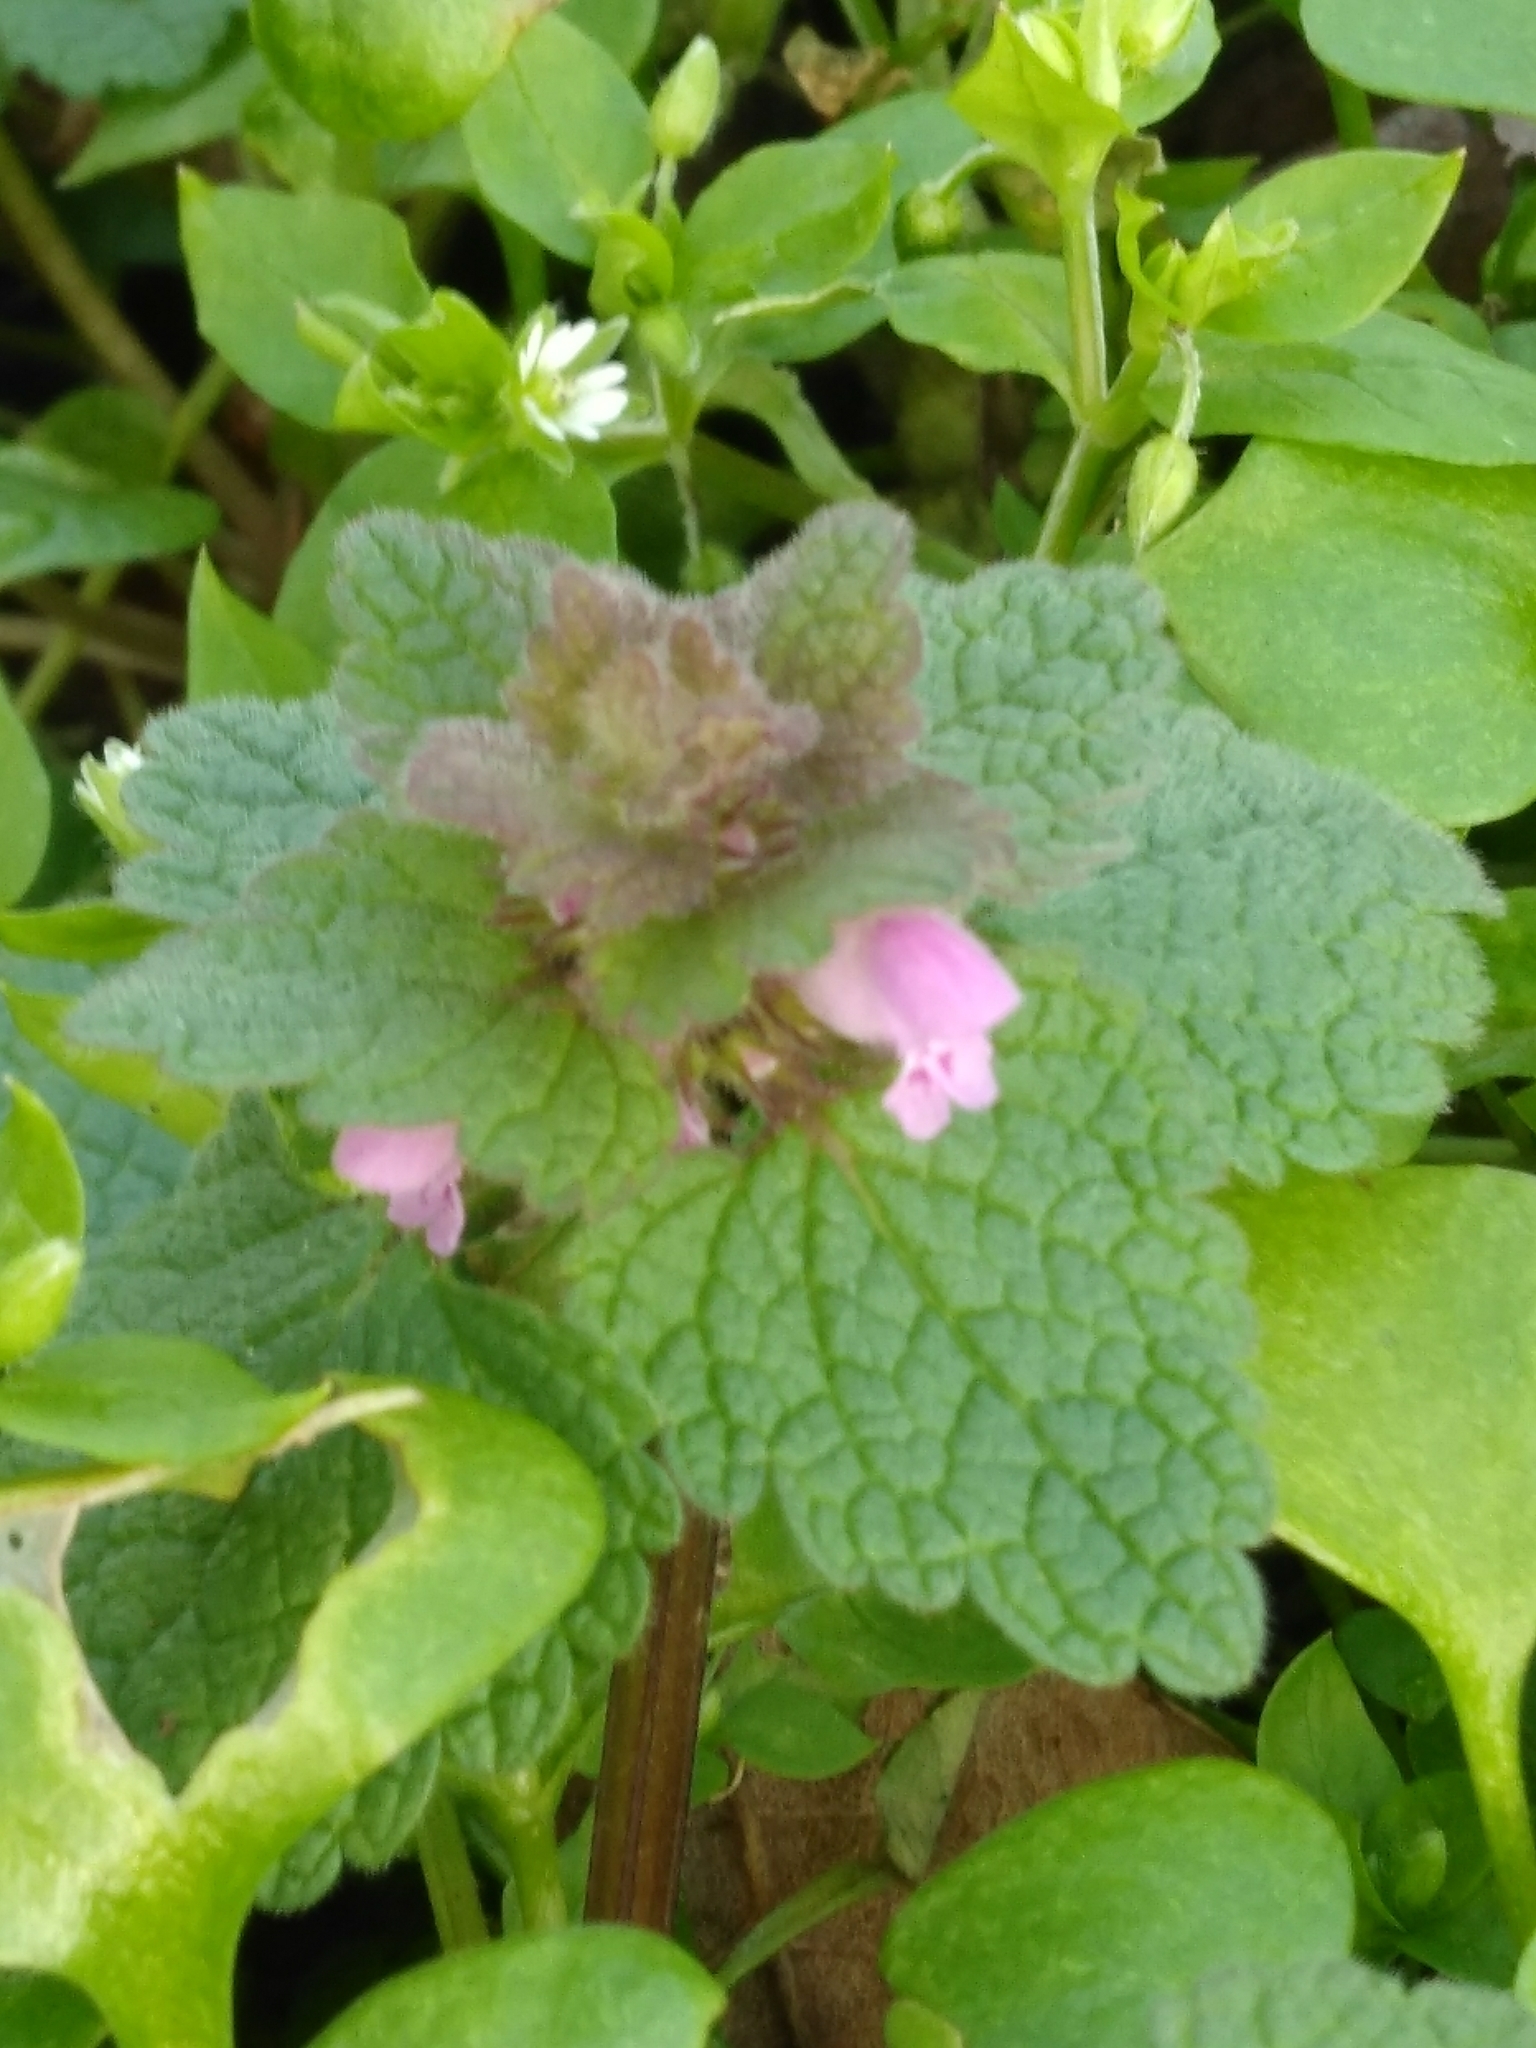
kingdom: Plantae
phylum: Tracheophyta
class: Magnoliopsida
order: Lamiales
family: Lamiaceae
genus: Lamium
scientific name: Lamium purpureum
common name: Red dead-nettle
